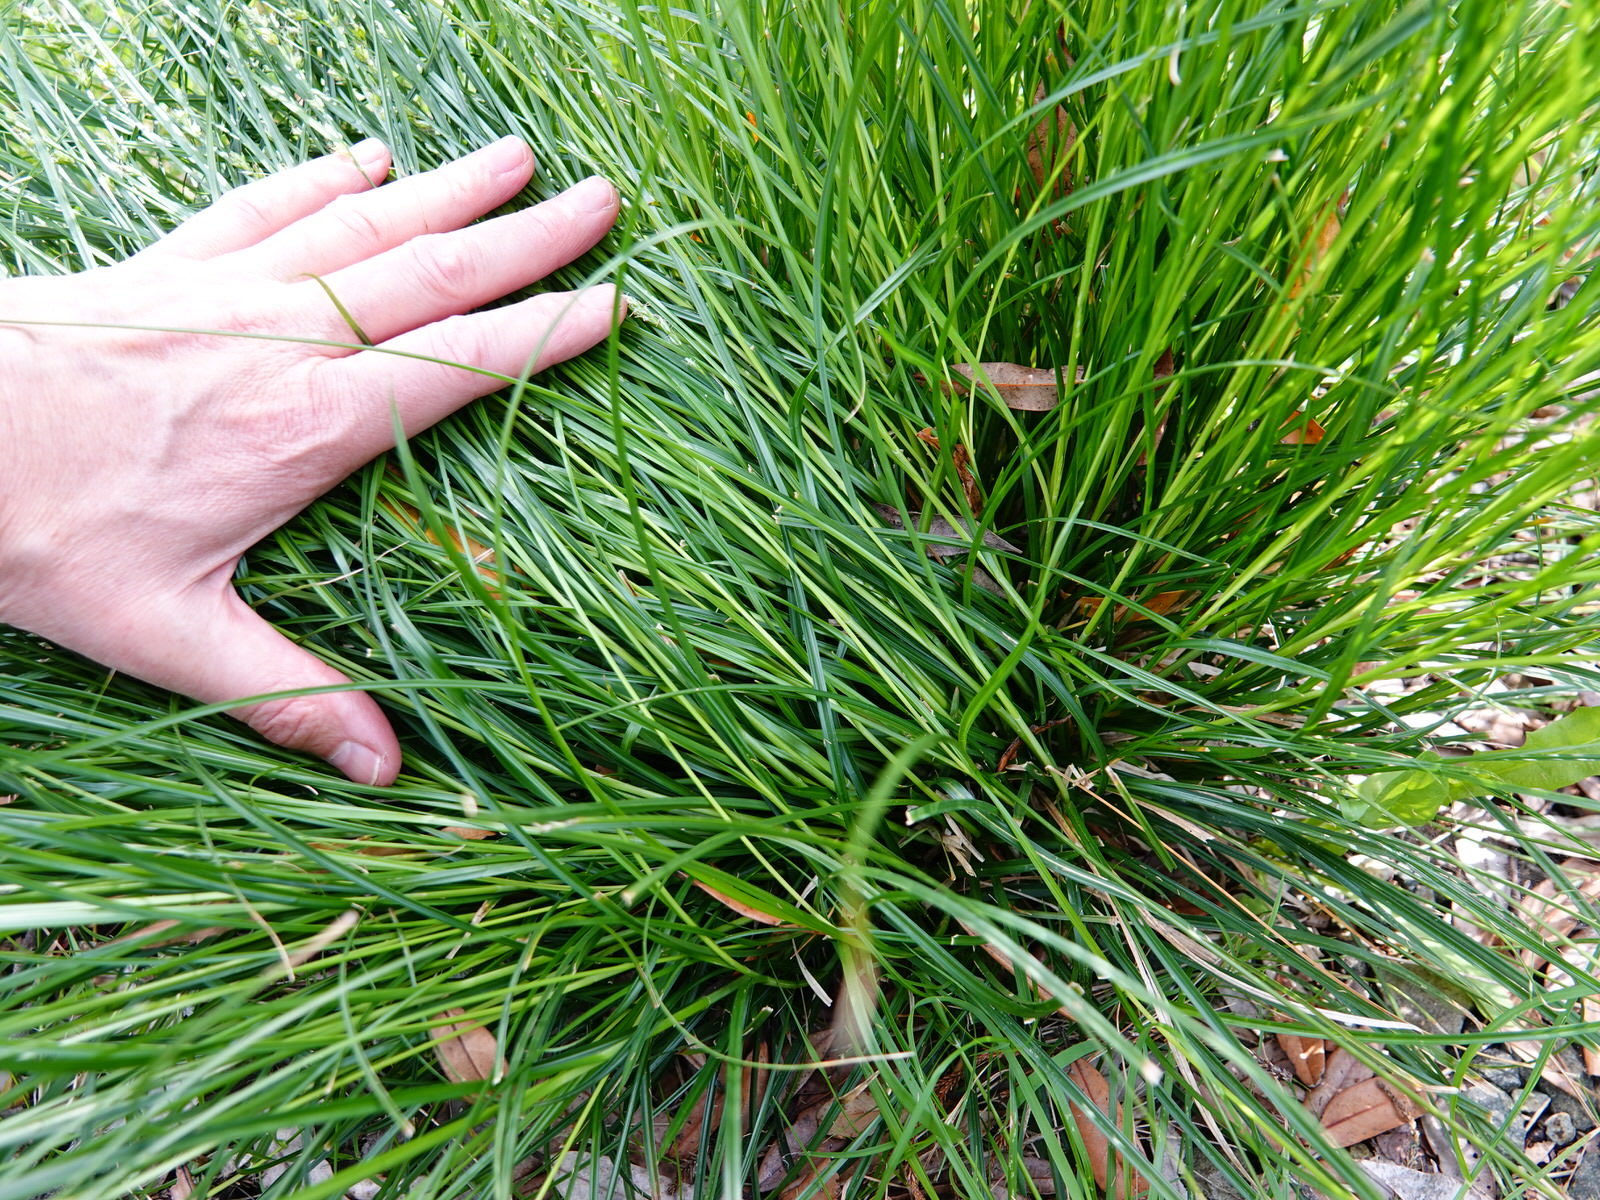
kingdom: Plantae
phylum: Tracheophyta
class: Liliopsida
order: Poales
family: Cyperaceae
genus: Carex
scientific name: Carex divulsa
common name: Grassland sedge
